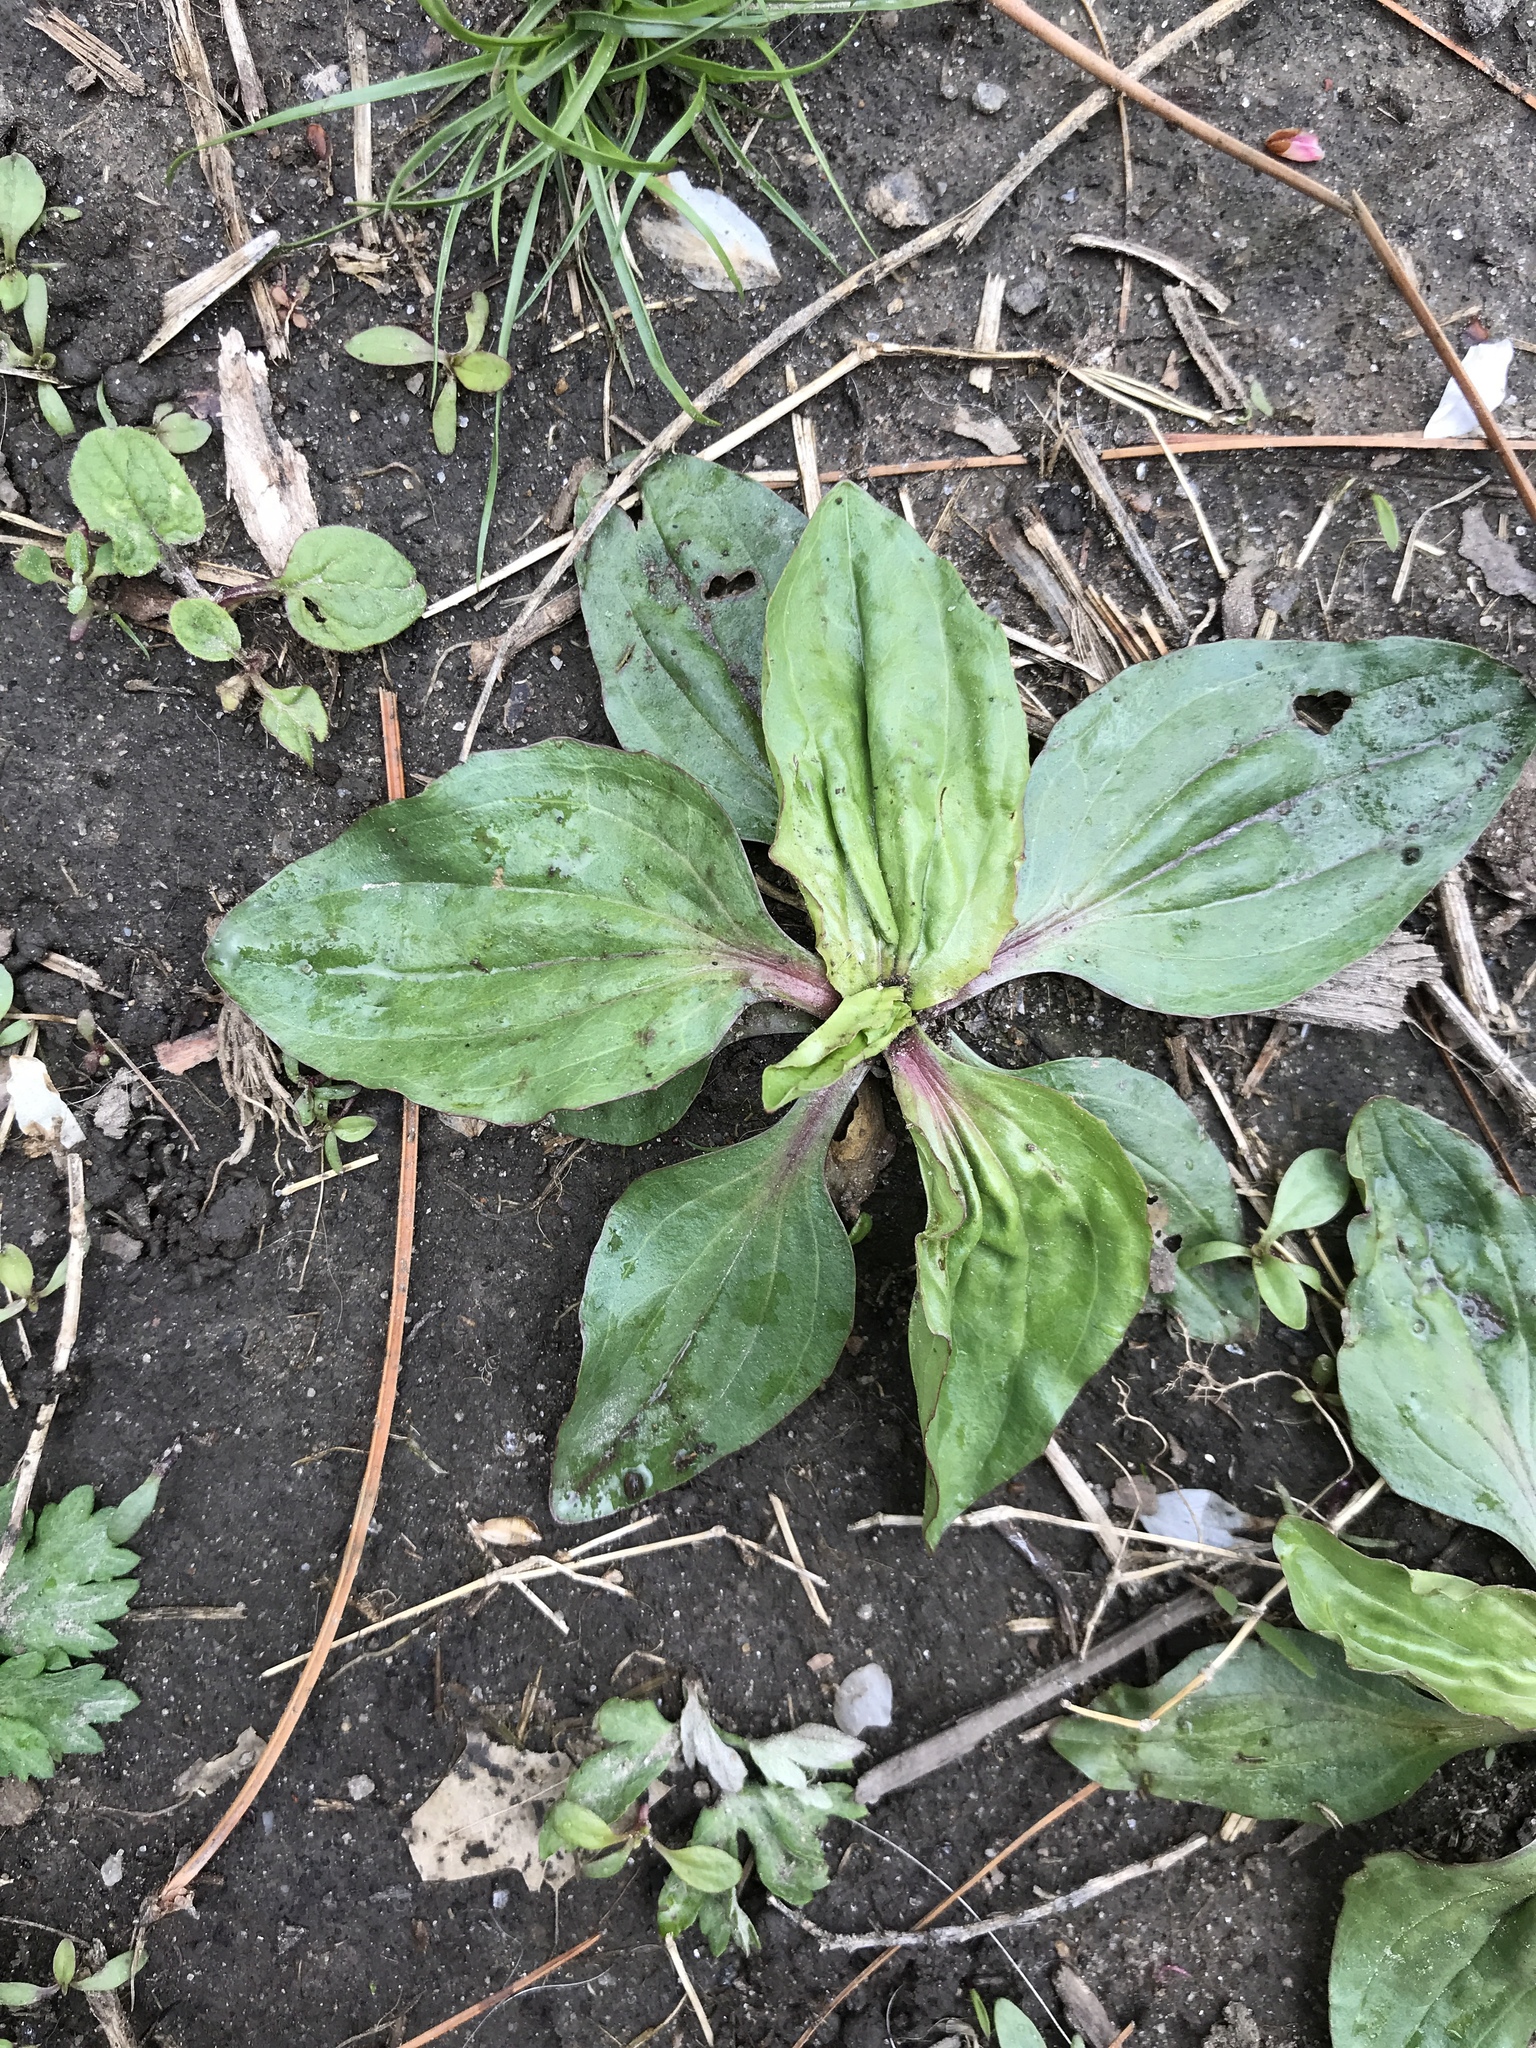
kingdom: Plantae
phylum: Tracheophyta
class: Magnoliopsida
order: Lamiales
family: Plantaginaceae
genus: Plantago
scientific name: Plantago rugelii
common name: American plantain
